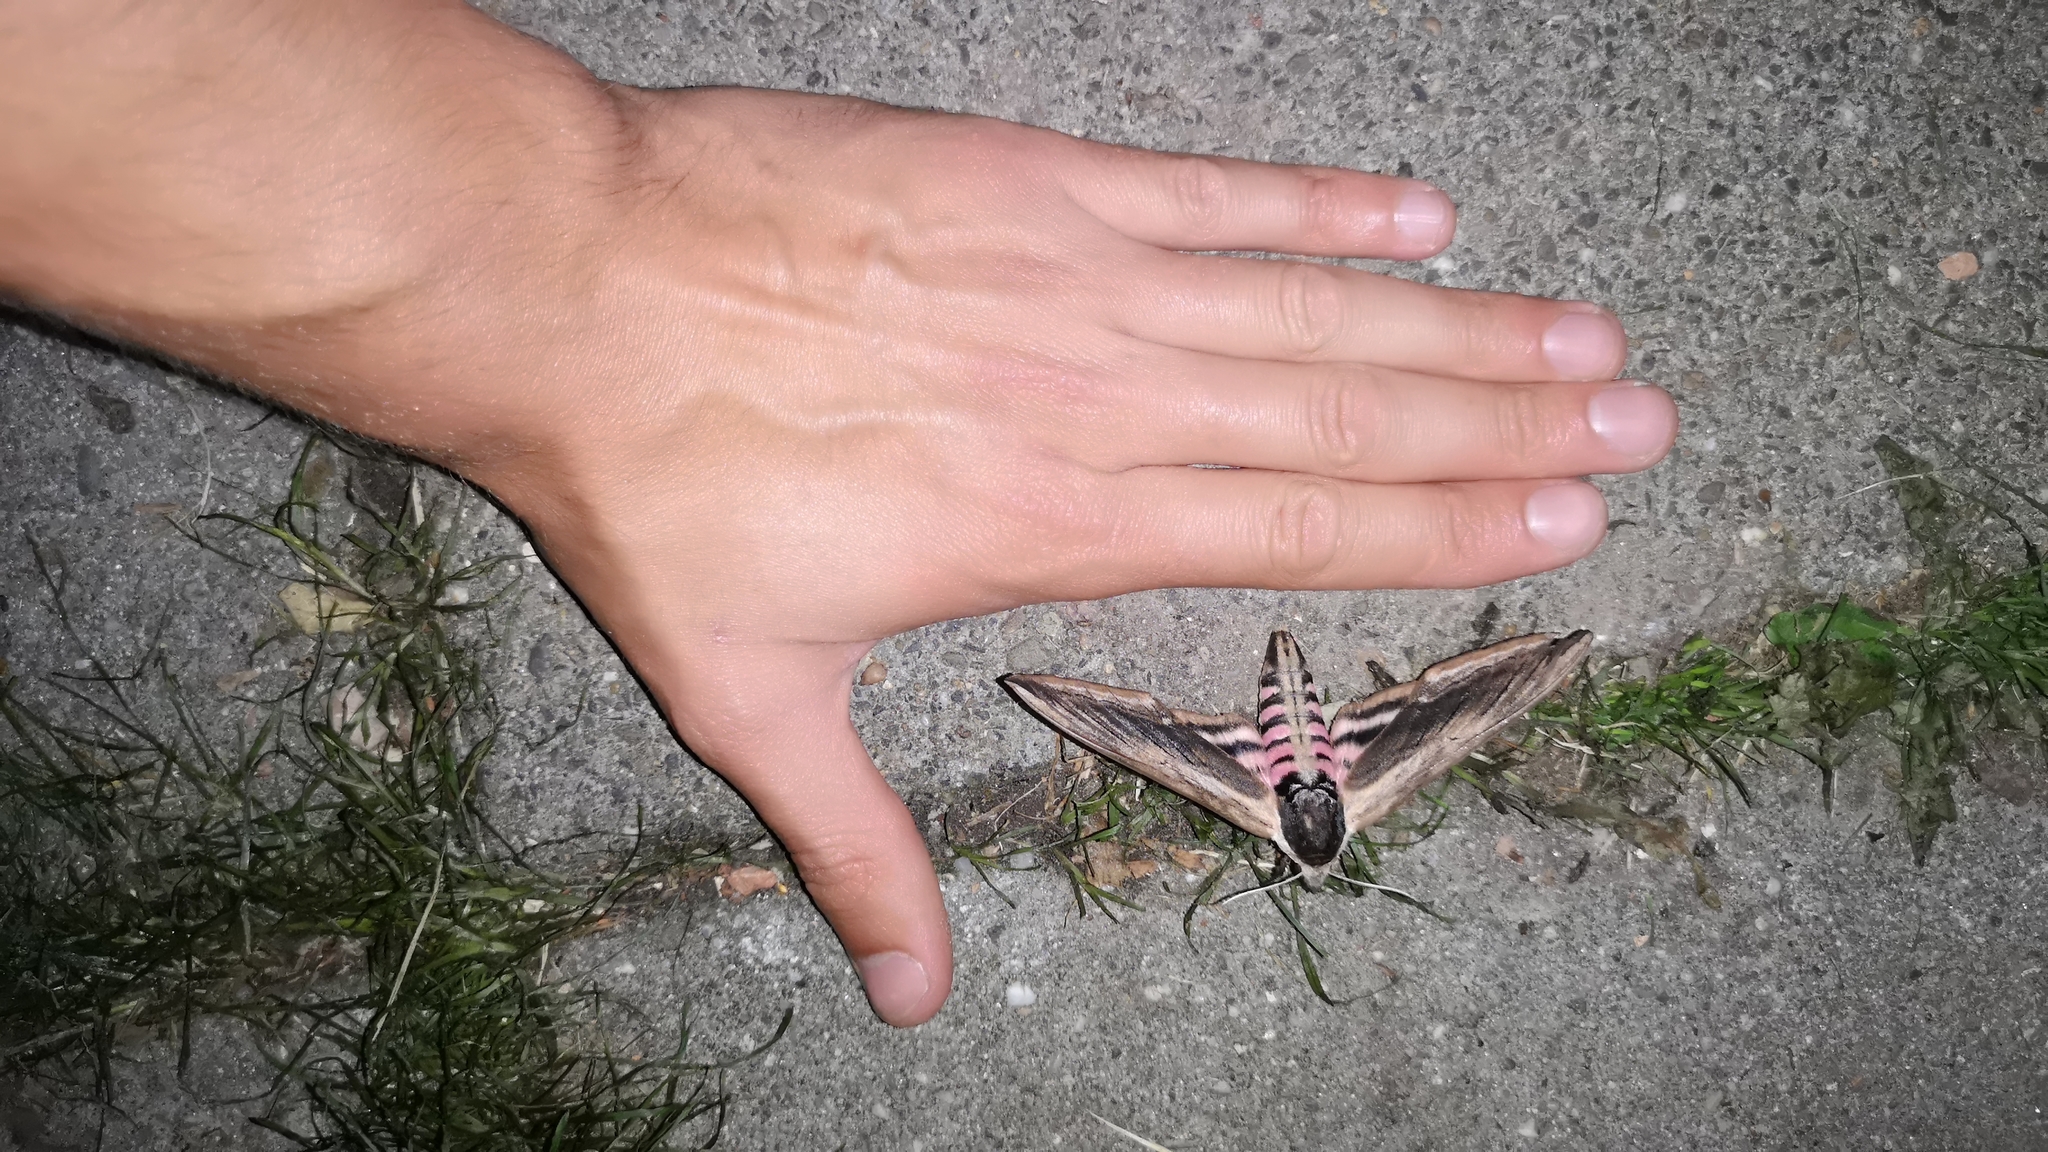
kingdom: Animalia
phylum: Arthropoda
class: Insecta
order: Lepidoptera
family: Sphingidae
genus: Sphinx
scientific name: Sphinx ligustri
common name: Privet hawk-moth
